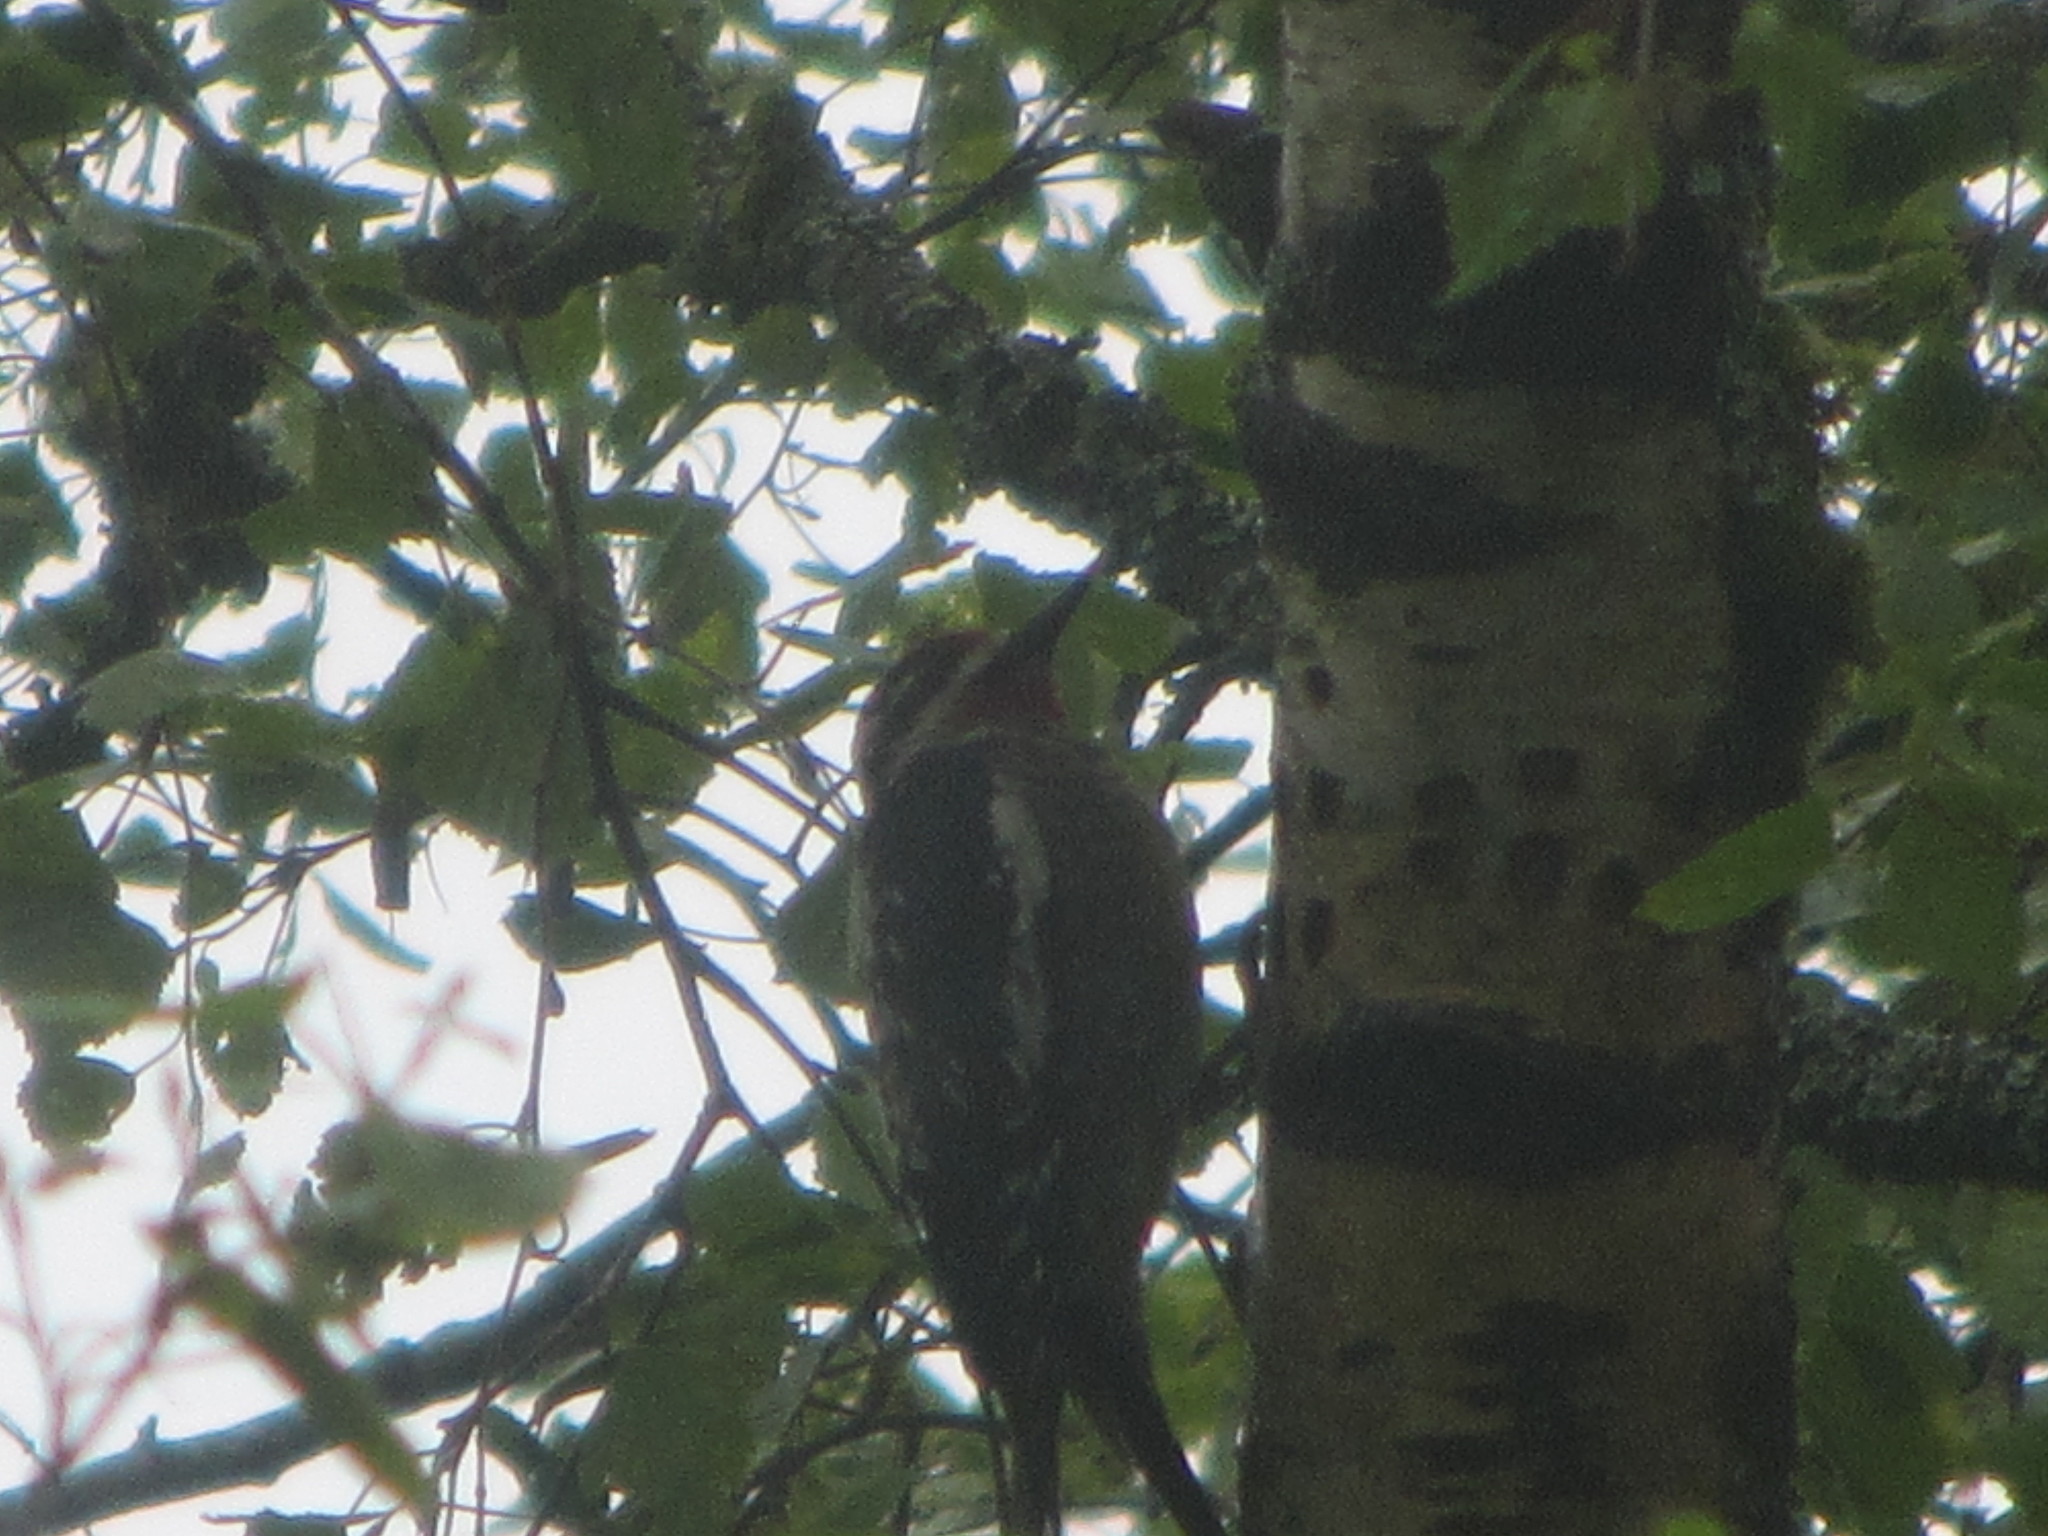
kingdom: Animalia
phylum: Chordata
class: Aves
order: Piciformes
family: Picidae
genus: Sphyrapicus
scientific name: Sphyrapicus nuchalis
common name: Red-naped sapsucker
